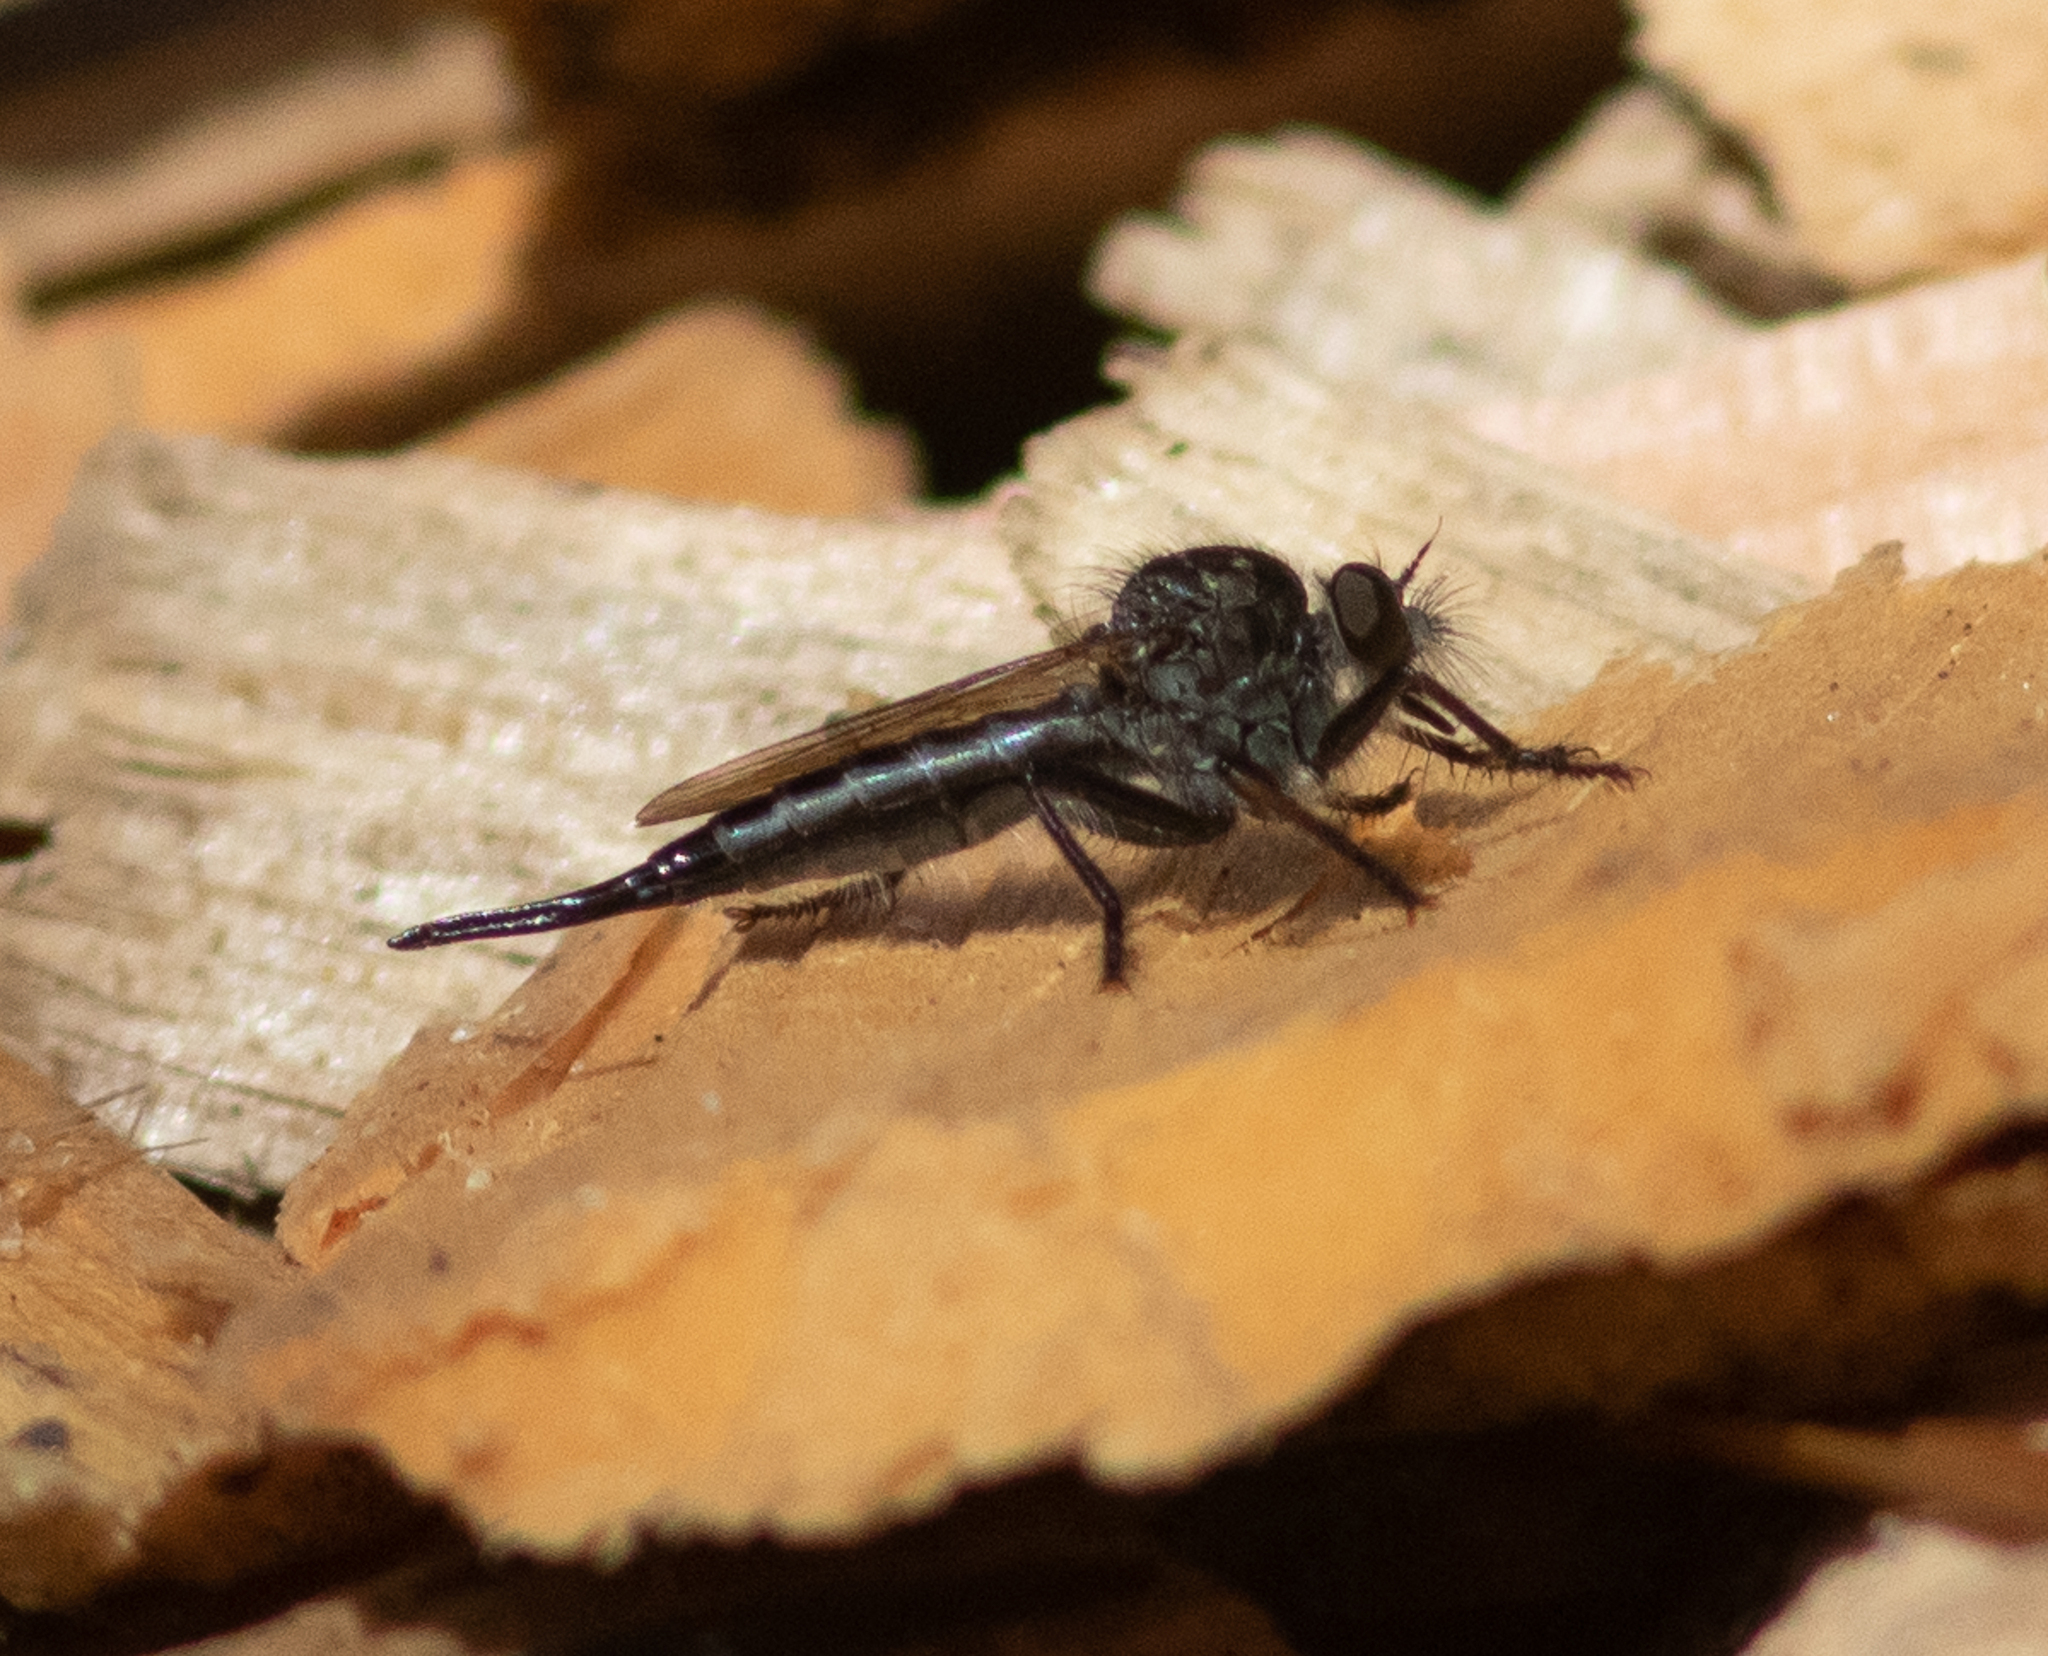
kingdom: Animalia
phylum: Arthropoda
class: Insecta
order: Diptera
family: Asilidae
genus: Efferia
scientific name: Efferia aestuans
